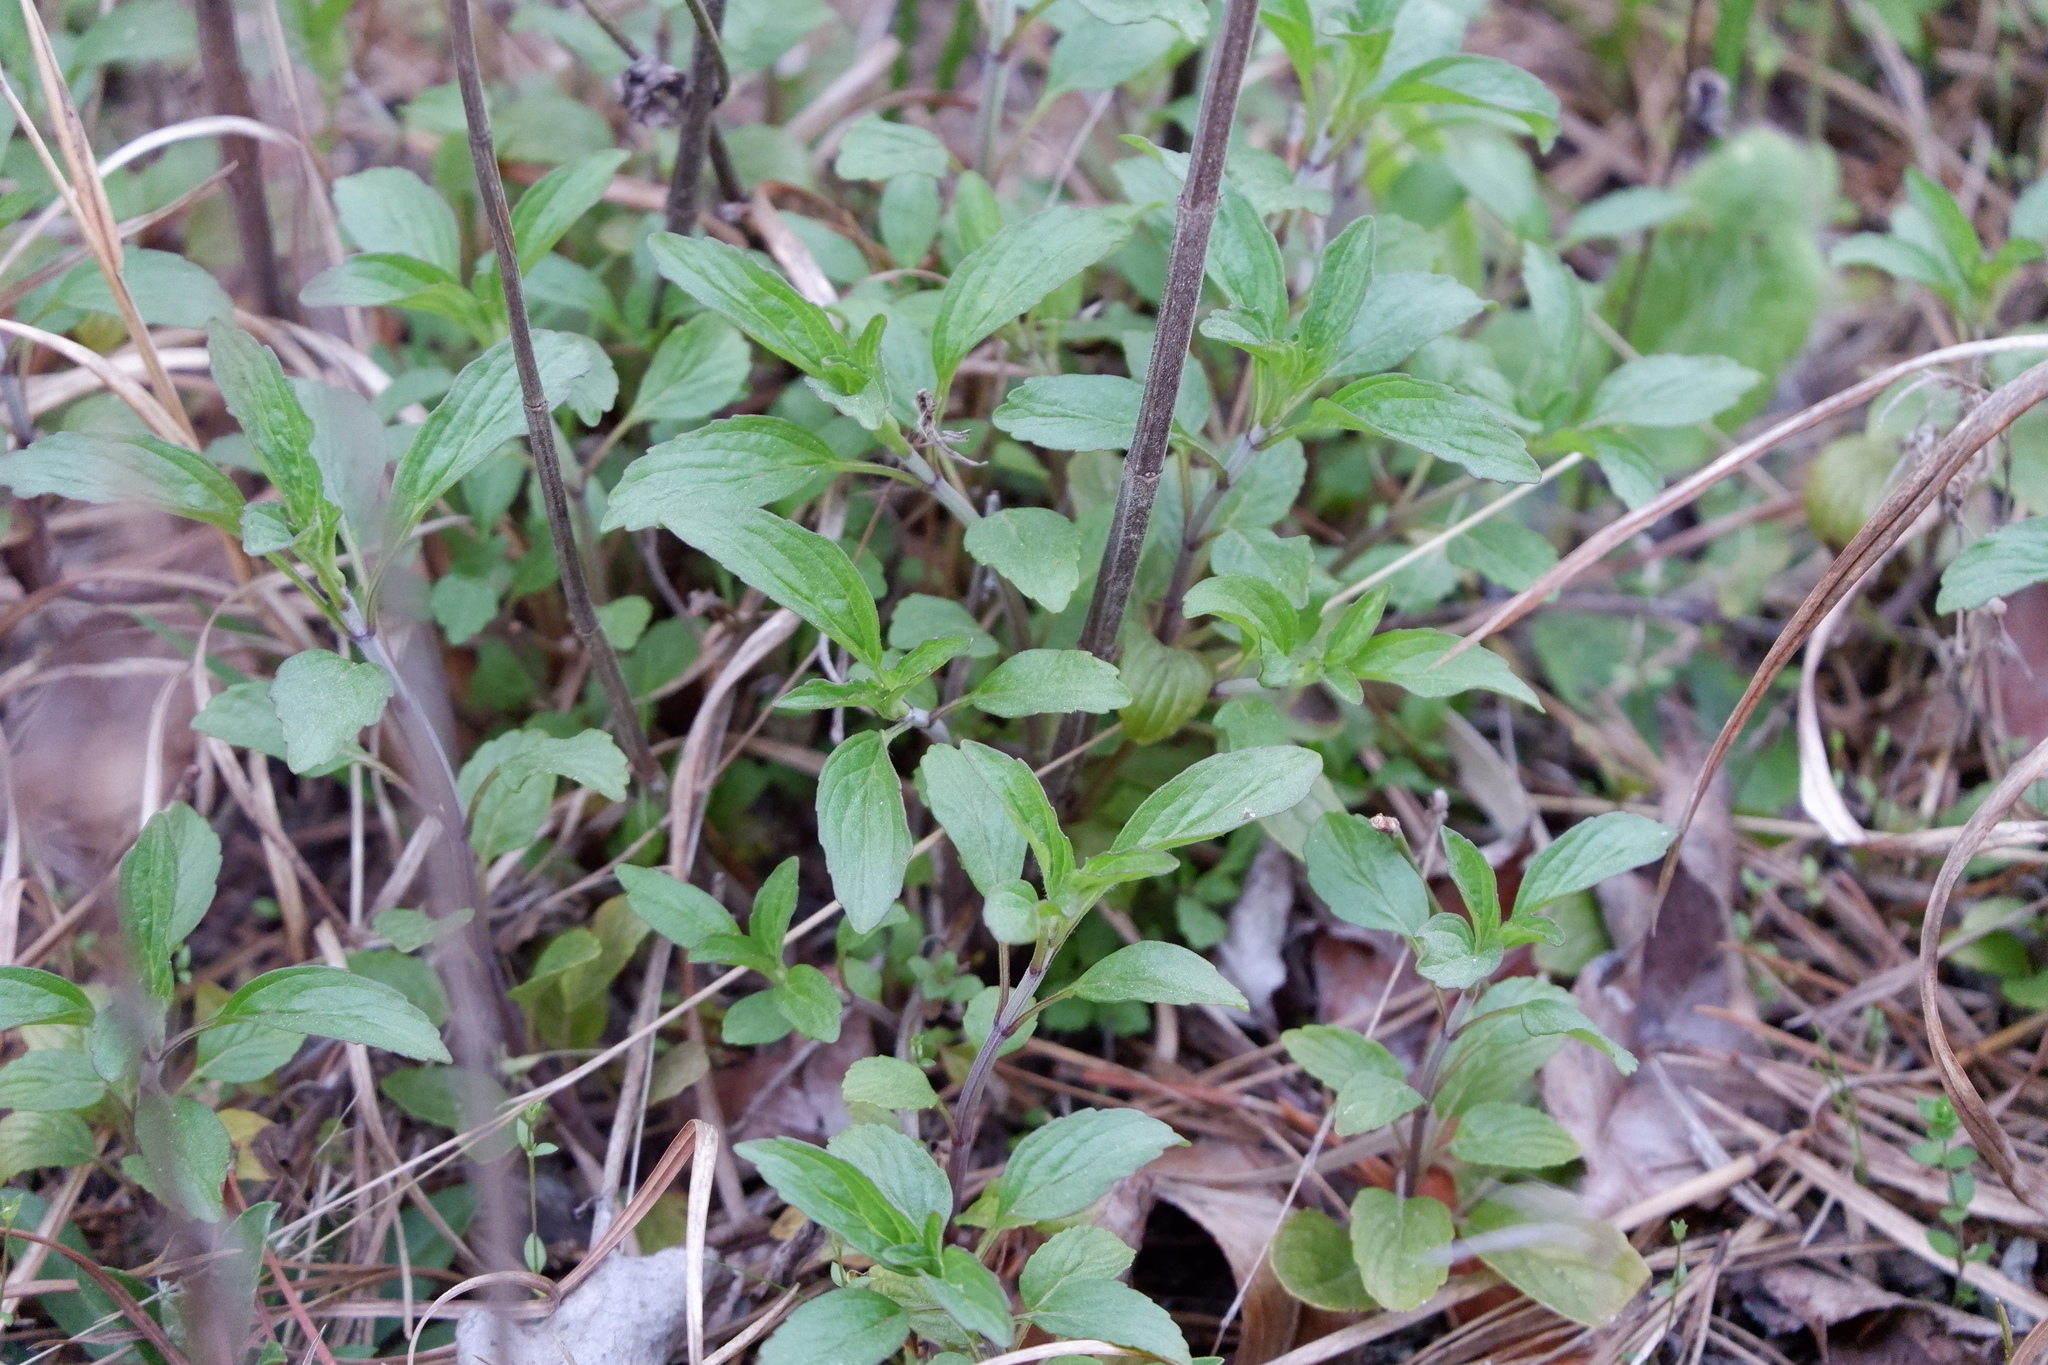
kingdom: Plantae
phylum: Tracheophyta
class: Magnoliopsida
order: Lamiales
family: Lamiaceae
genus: Monarda
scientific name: Monarda punctata
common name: Dotted monarda
